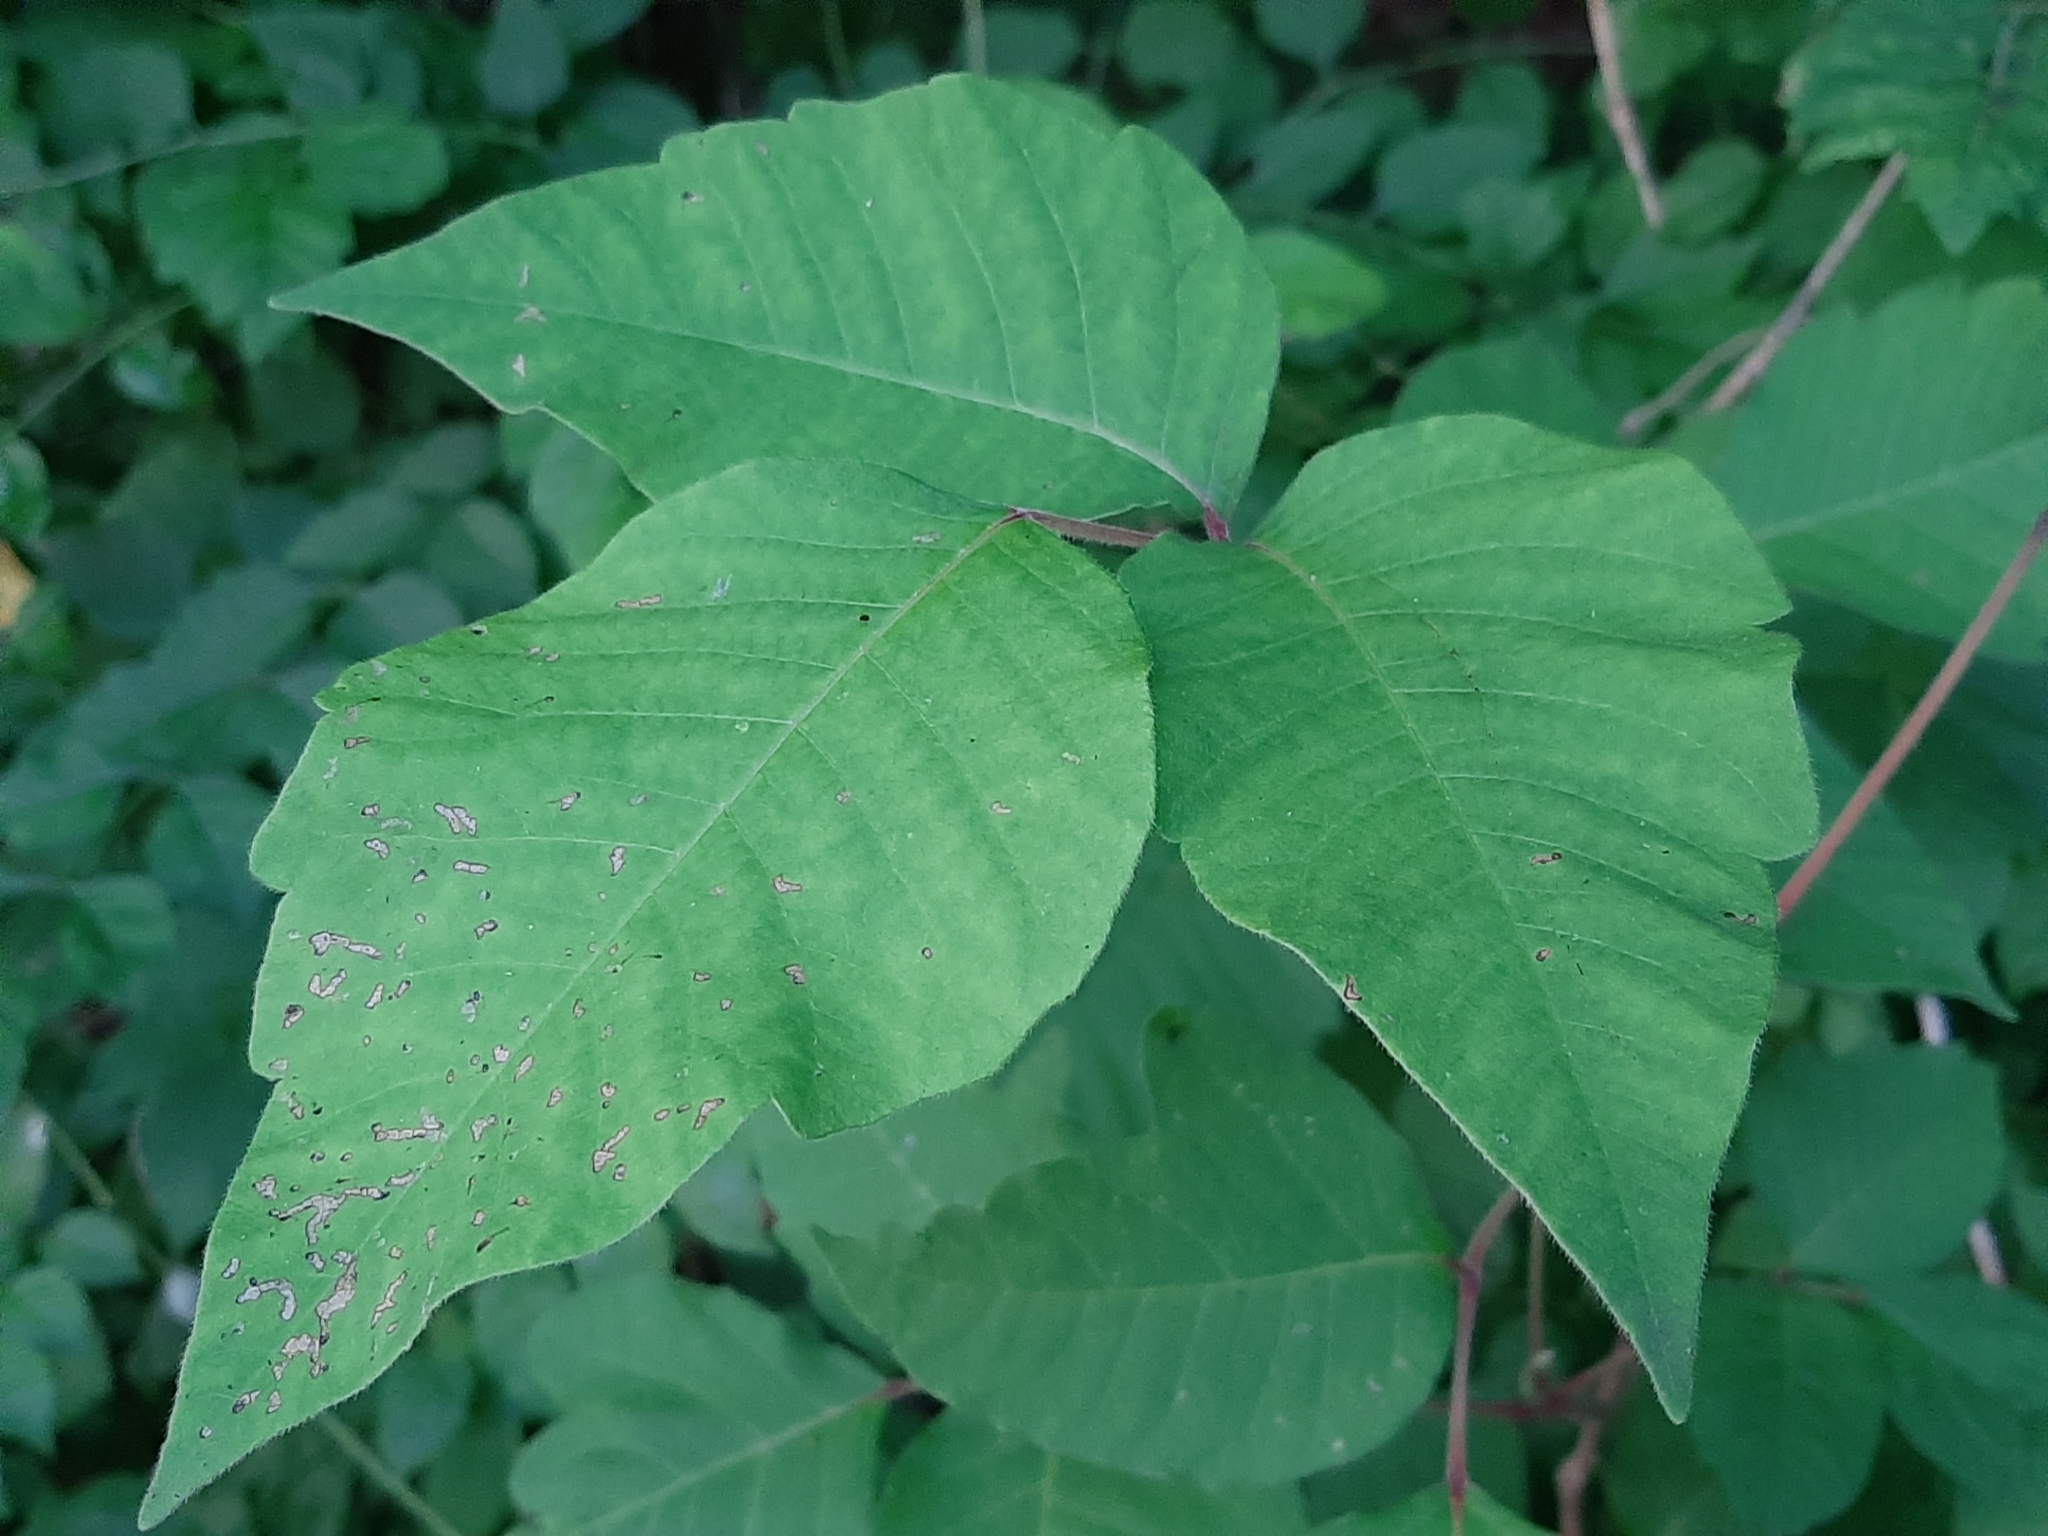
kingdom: Plantae
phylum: Tracheophyta
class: Magnoliopsida
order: Sapindales
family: Anacardiaceae
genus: Toxicodendron
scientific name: Toxicodendron radicans
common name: Poison ivy
